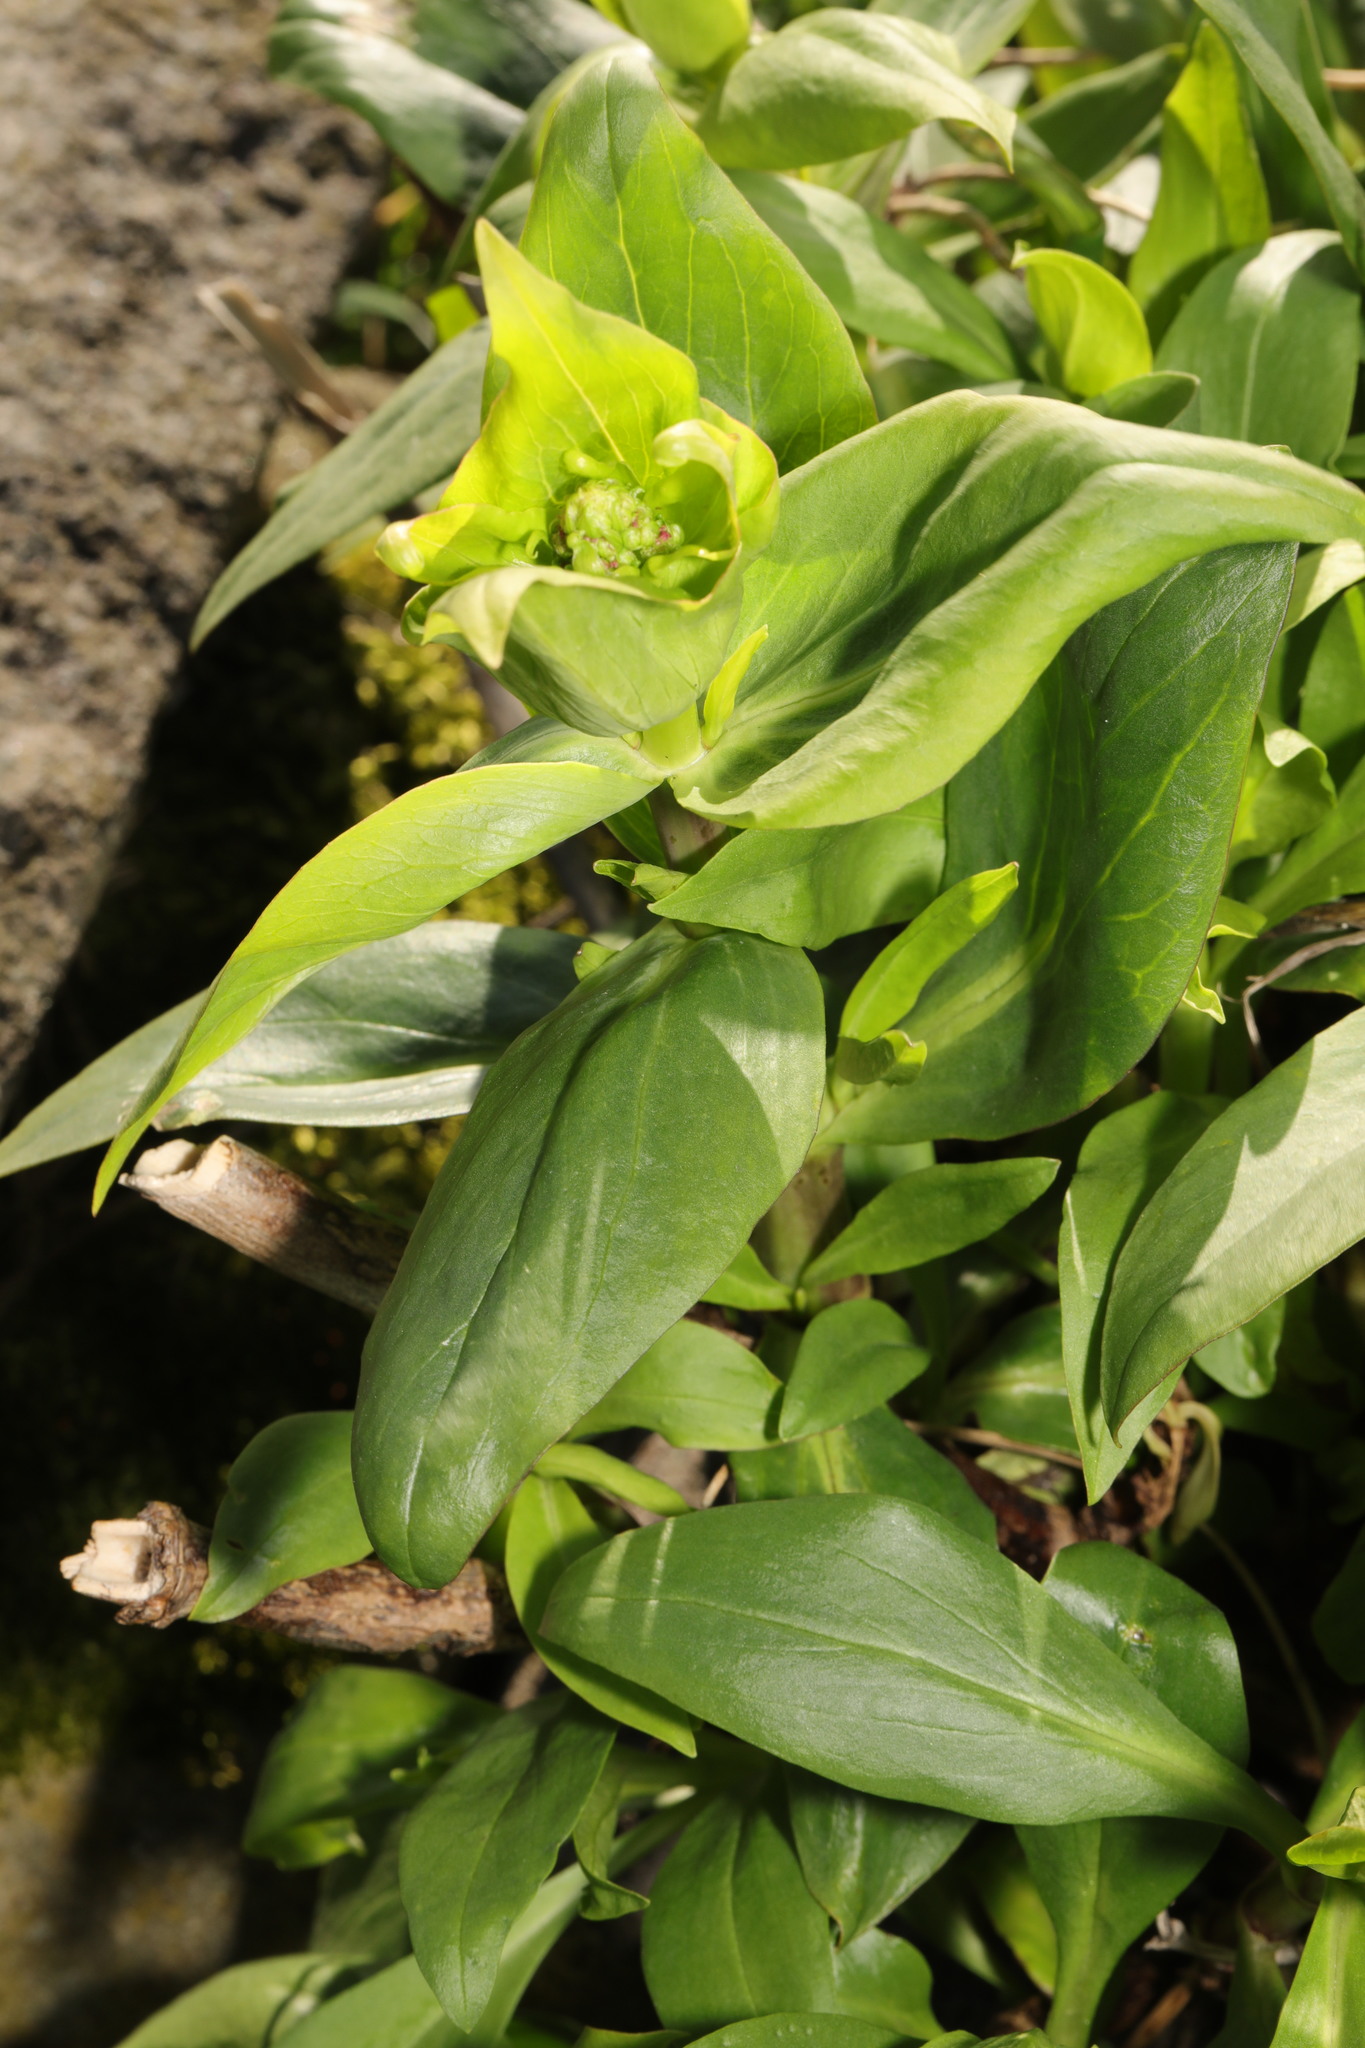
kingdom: Plantae
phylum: Tracheophyta
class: Magnoliopsida
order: Dipsacales
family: Caprifoliaceae
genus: Centranthus
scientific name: Centranthus ruber
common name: Red valerian
